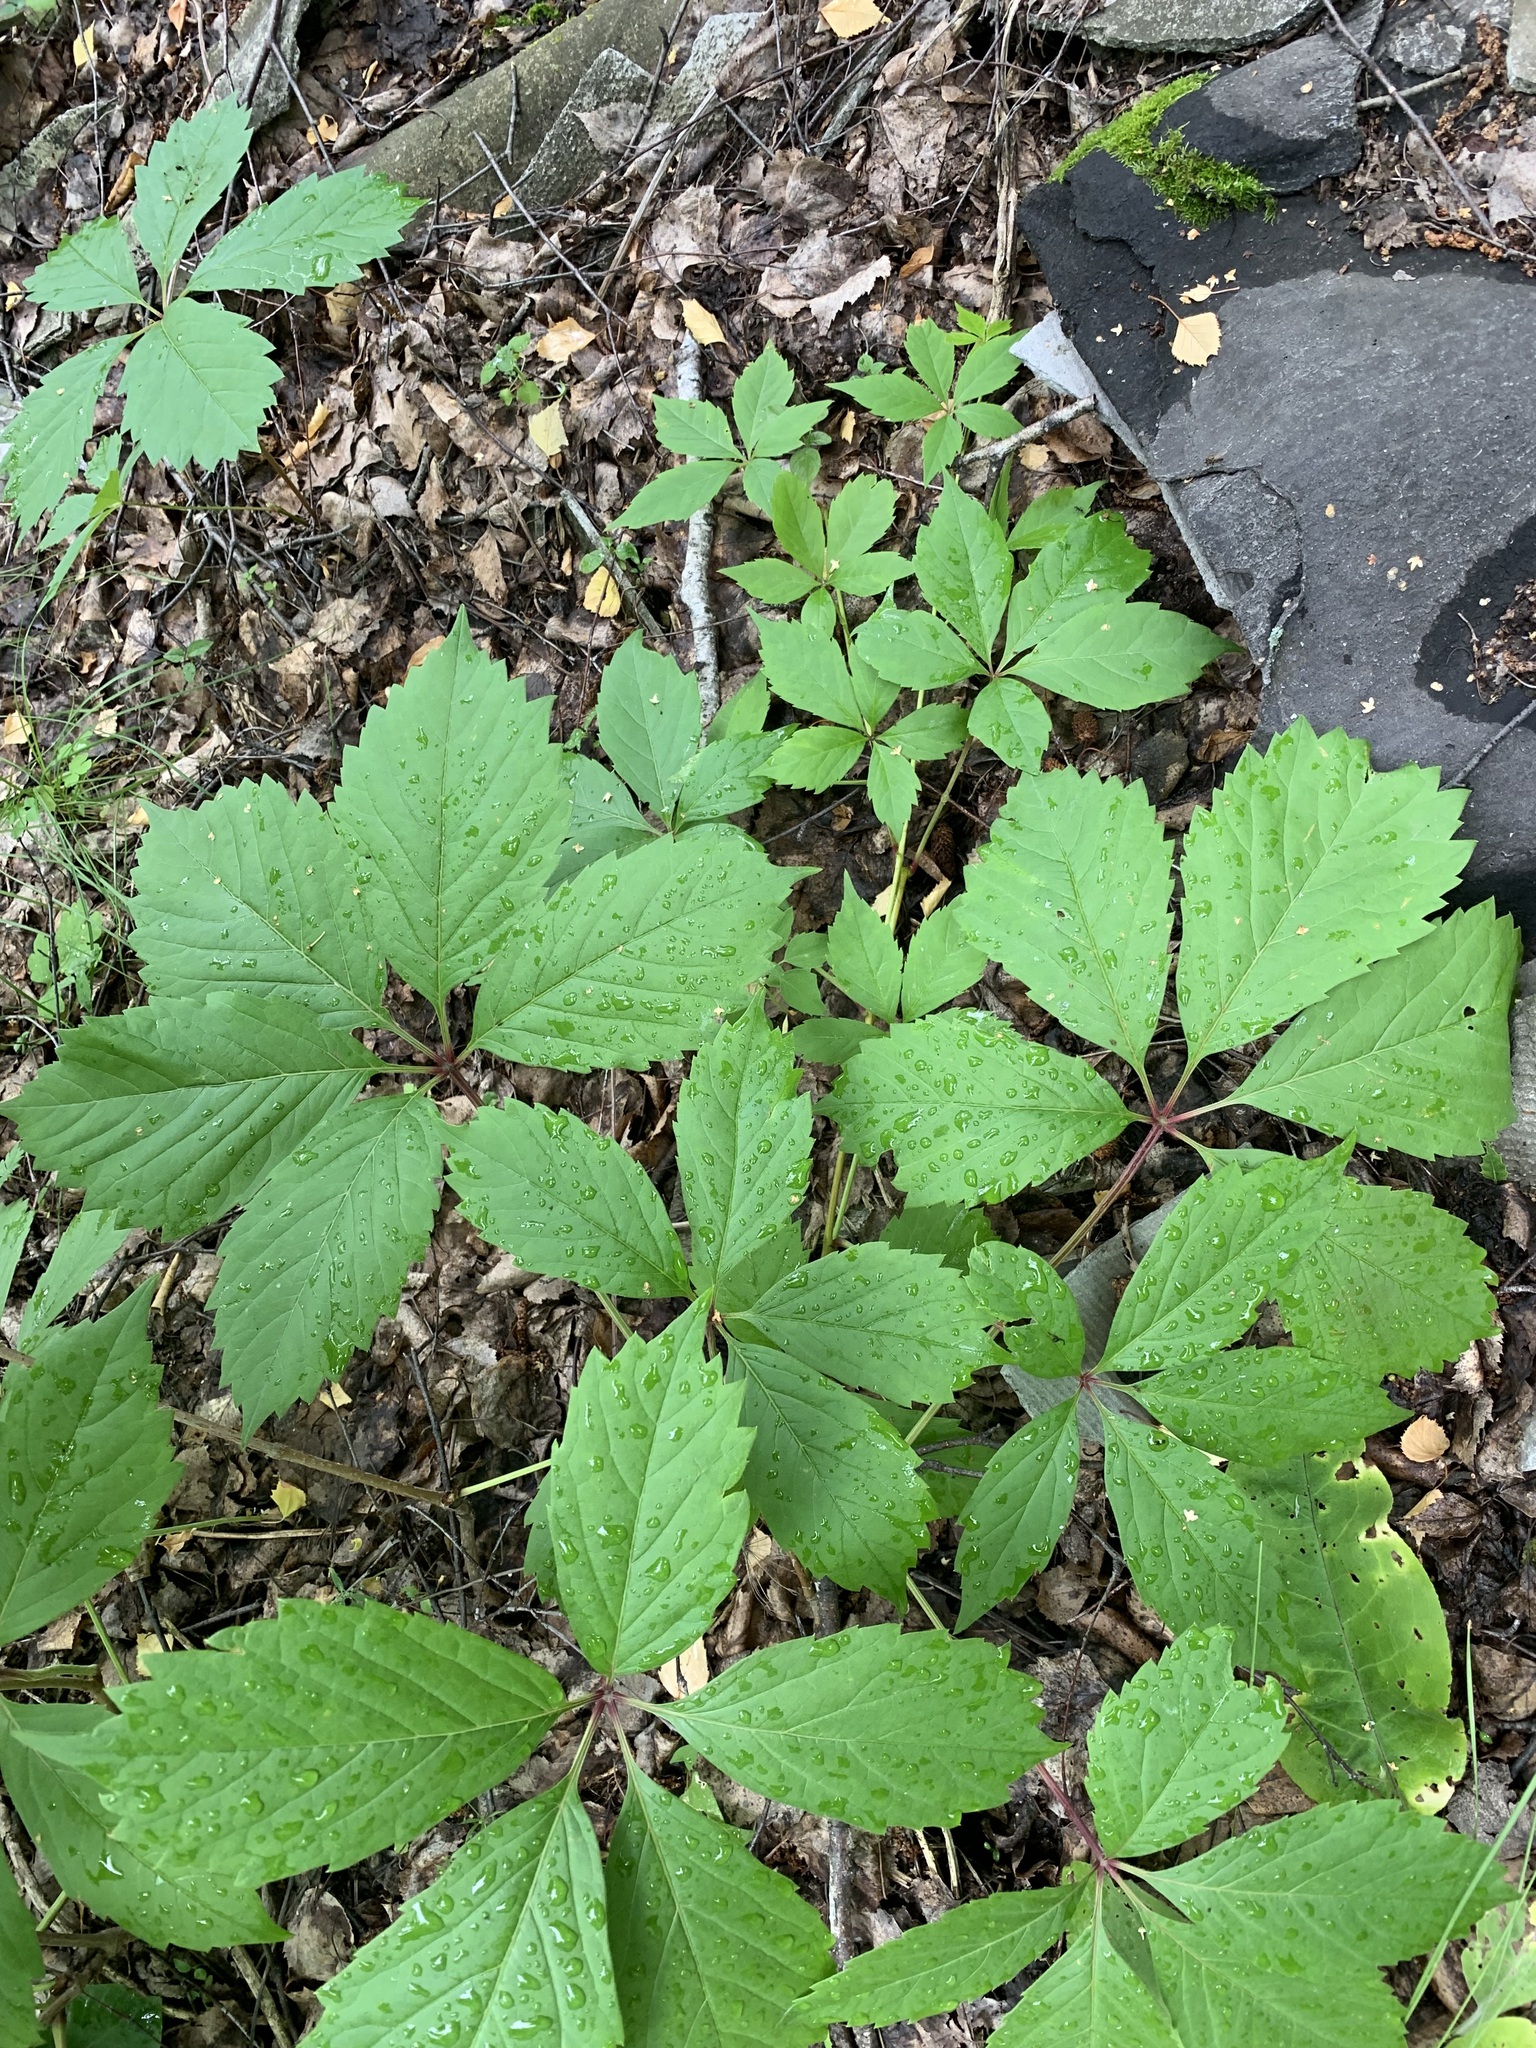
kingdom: Plantae
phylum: Tracheophyta
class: Magnoliopsida
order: Vitales
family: Vitaceae
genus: Parthenocissus
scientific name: Parthenocissus inserta
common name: False virginia-creeper
